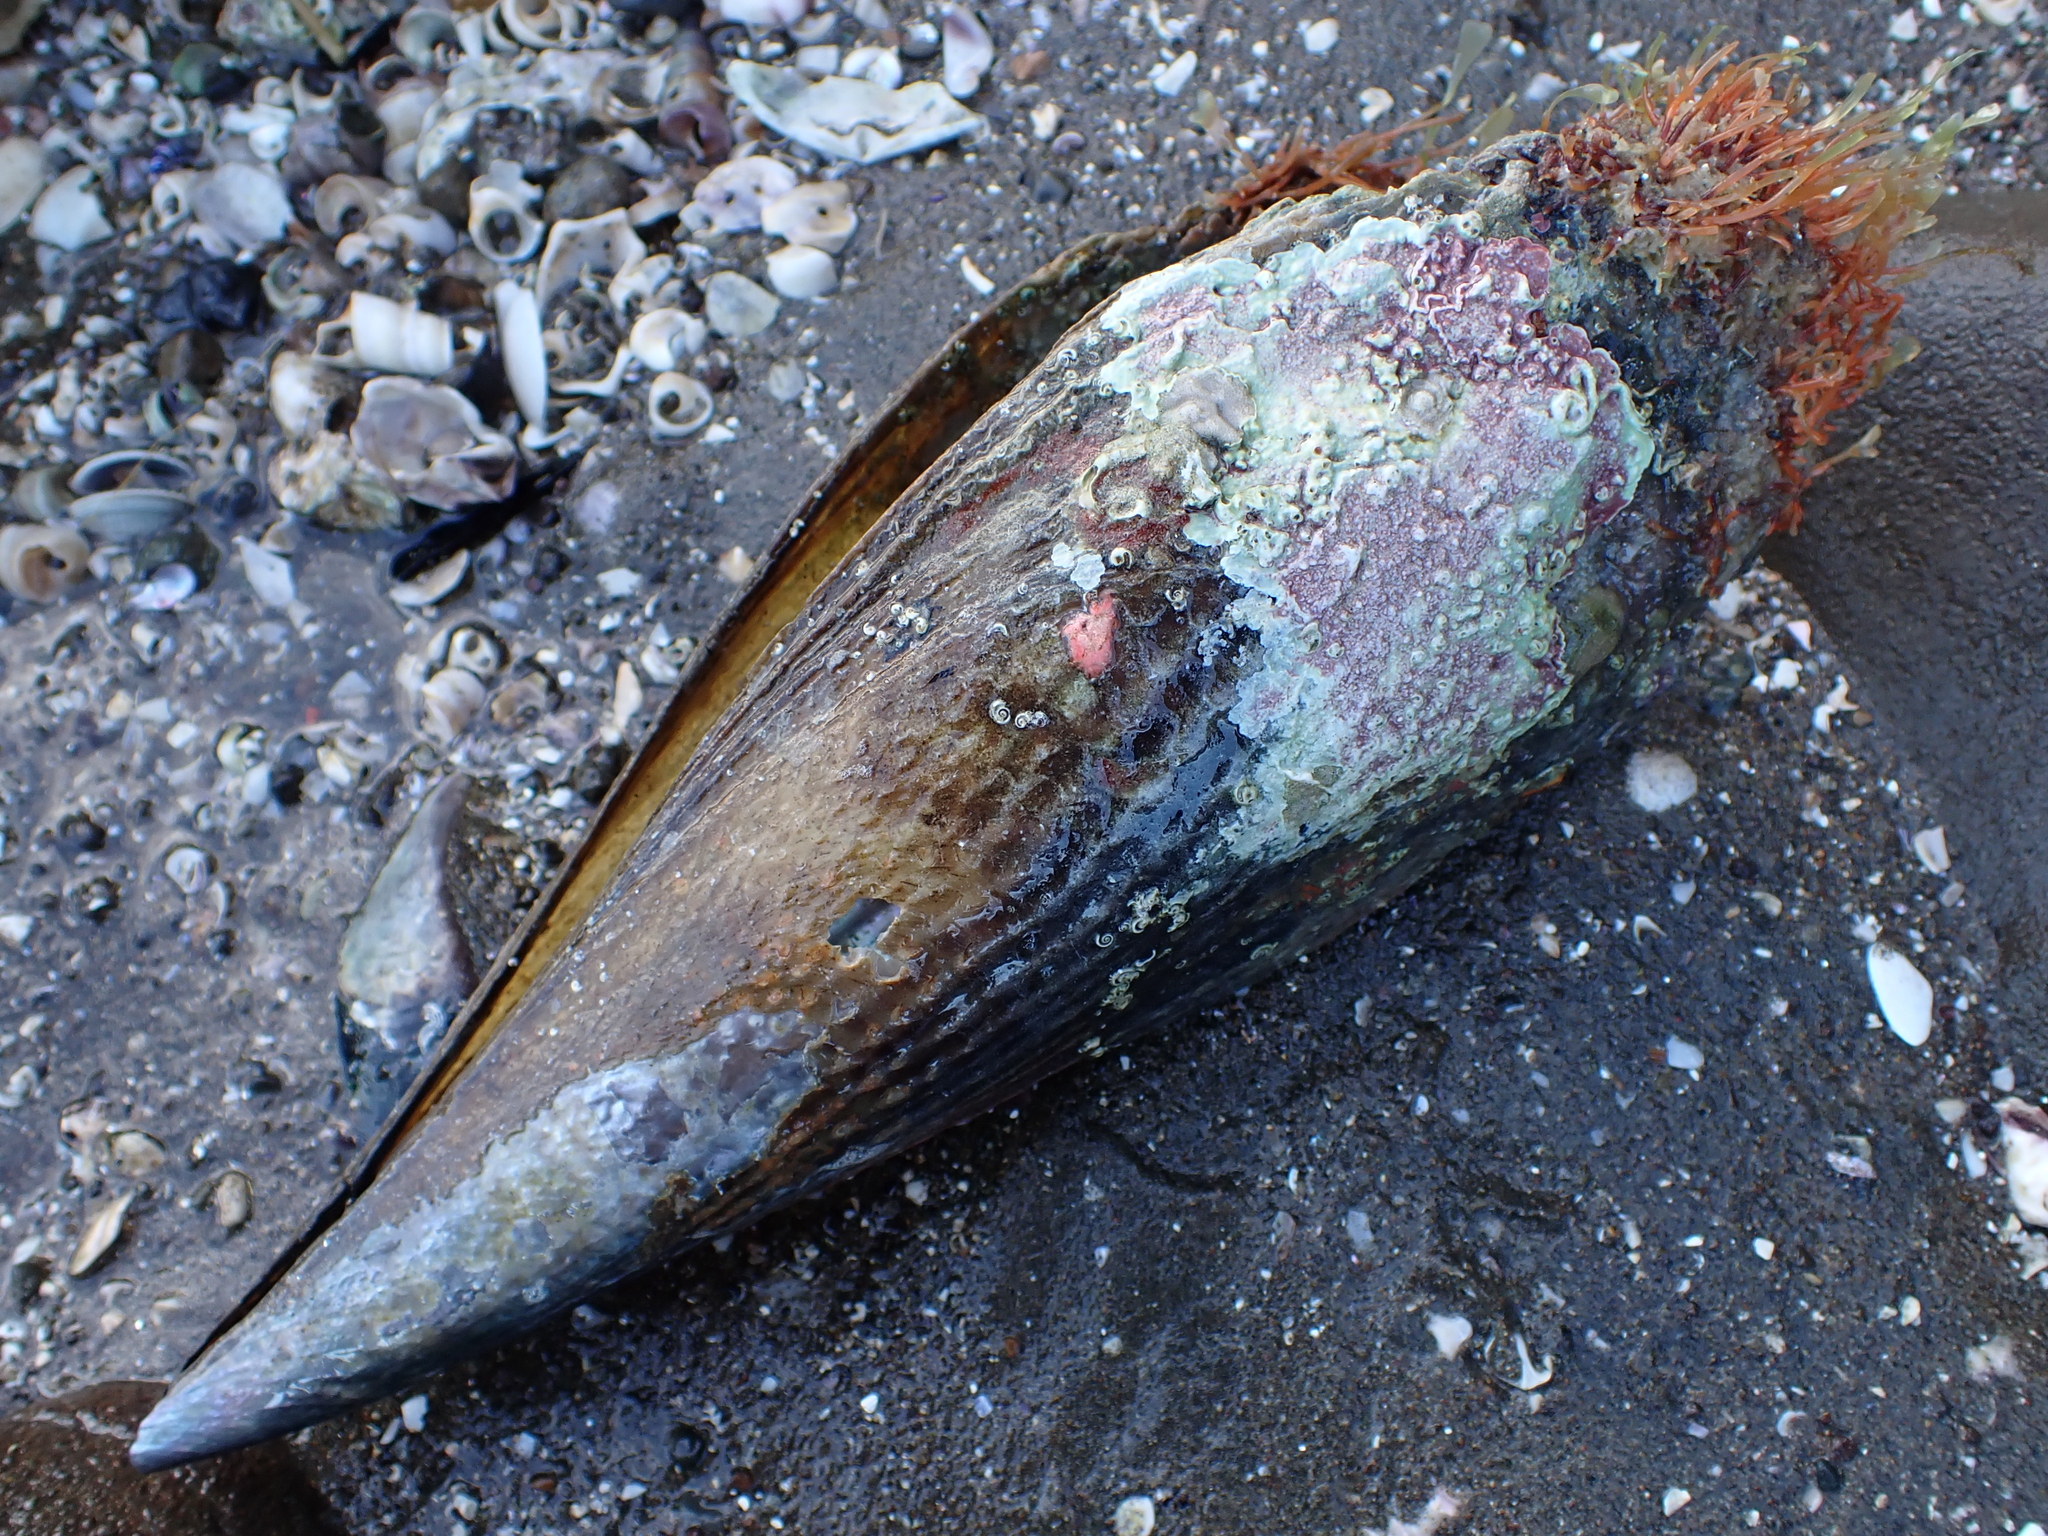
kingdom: Animalia
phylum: Mollusca
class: Bivalvia
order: Ostreida
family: Pinnidae
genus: Atrina
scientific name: Atrina zelandica
